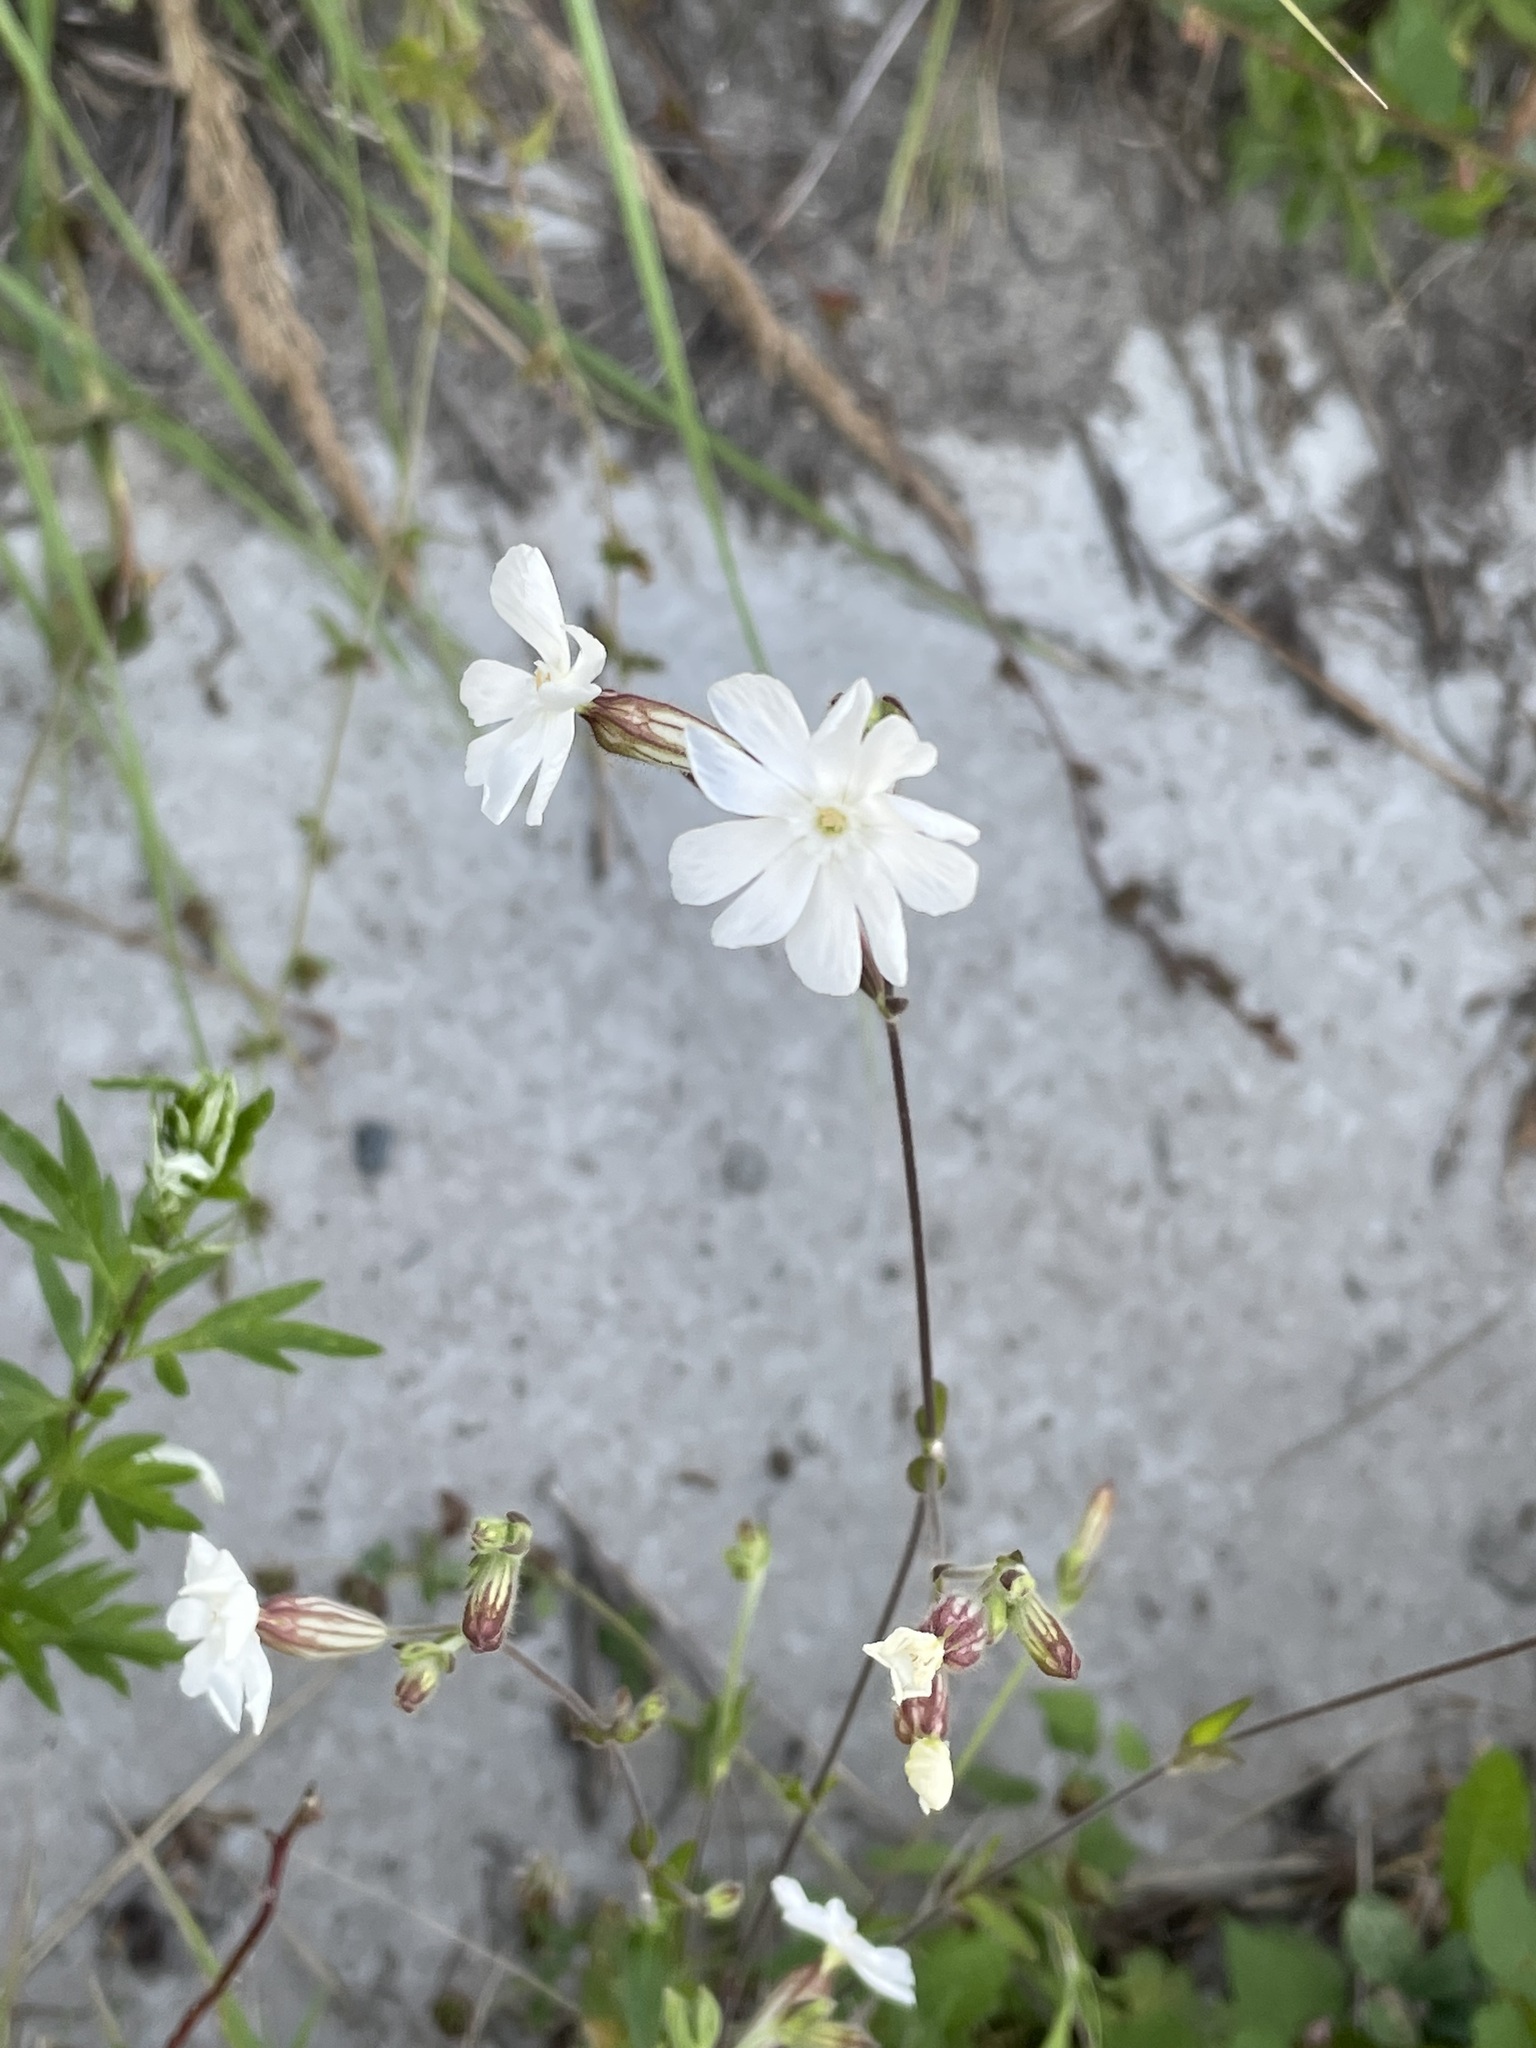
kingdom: Plantae
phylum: Tracheophyta
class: Magnoliopsida
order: Caryophyllales
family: Caryophyllaceae
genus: Silene
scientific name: Silene latifolia
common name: White campion
